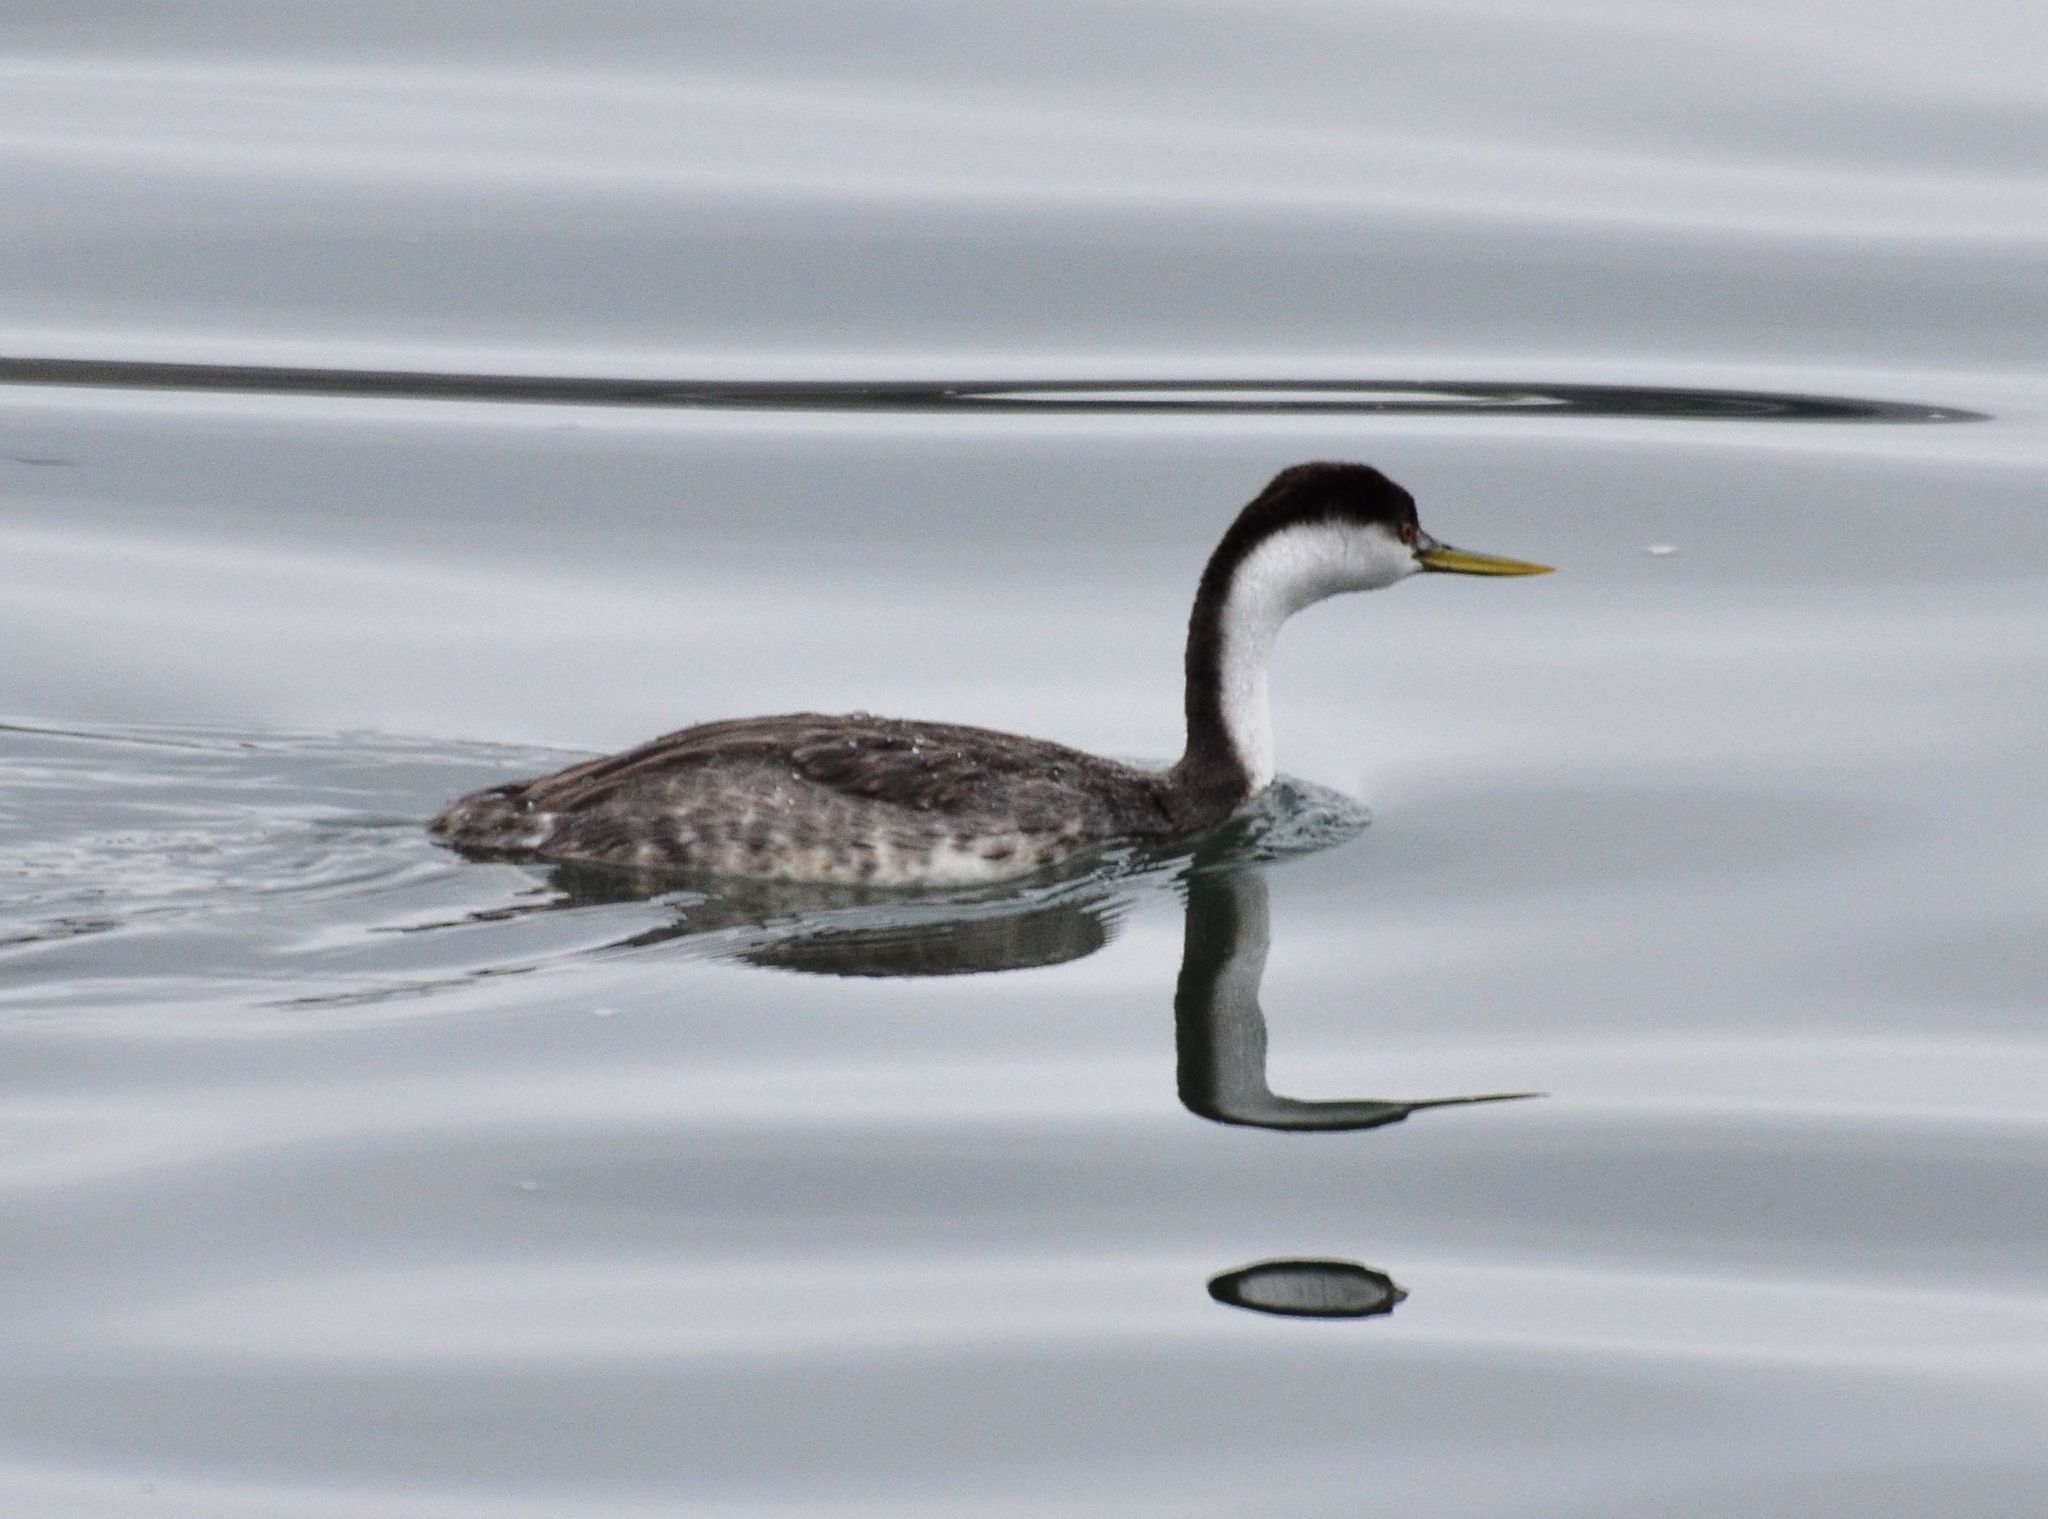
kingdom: Animalia
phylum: Chordata
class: Aves
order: Podicipediformes
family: Podicipedidae
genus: Aechmophorus
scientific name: Aechmophorus occidentalis
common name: Western grebe
